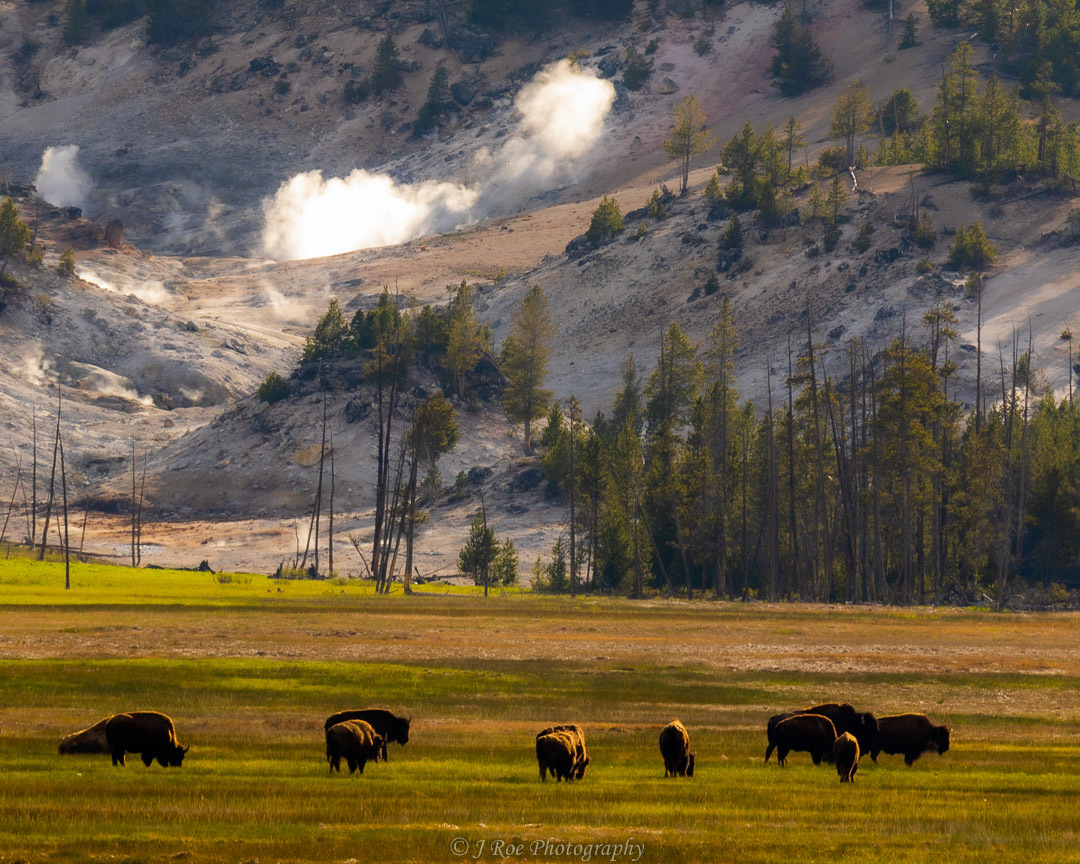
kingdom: Animalia
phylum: Chordata
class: Mammalia
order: Artiodactyla
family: Bovidae
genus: Bison
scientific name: Bison bison
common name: American bison
